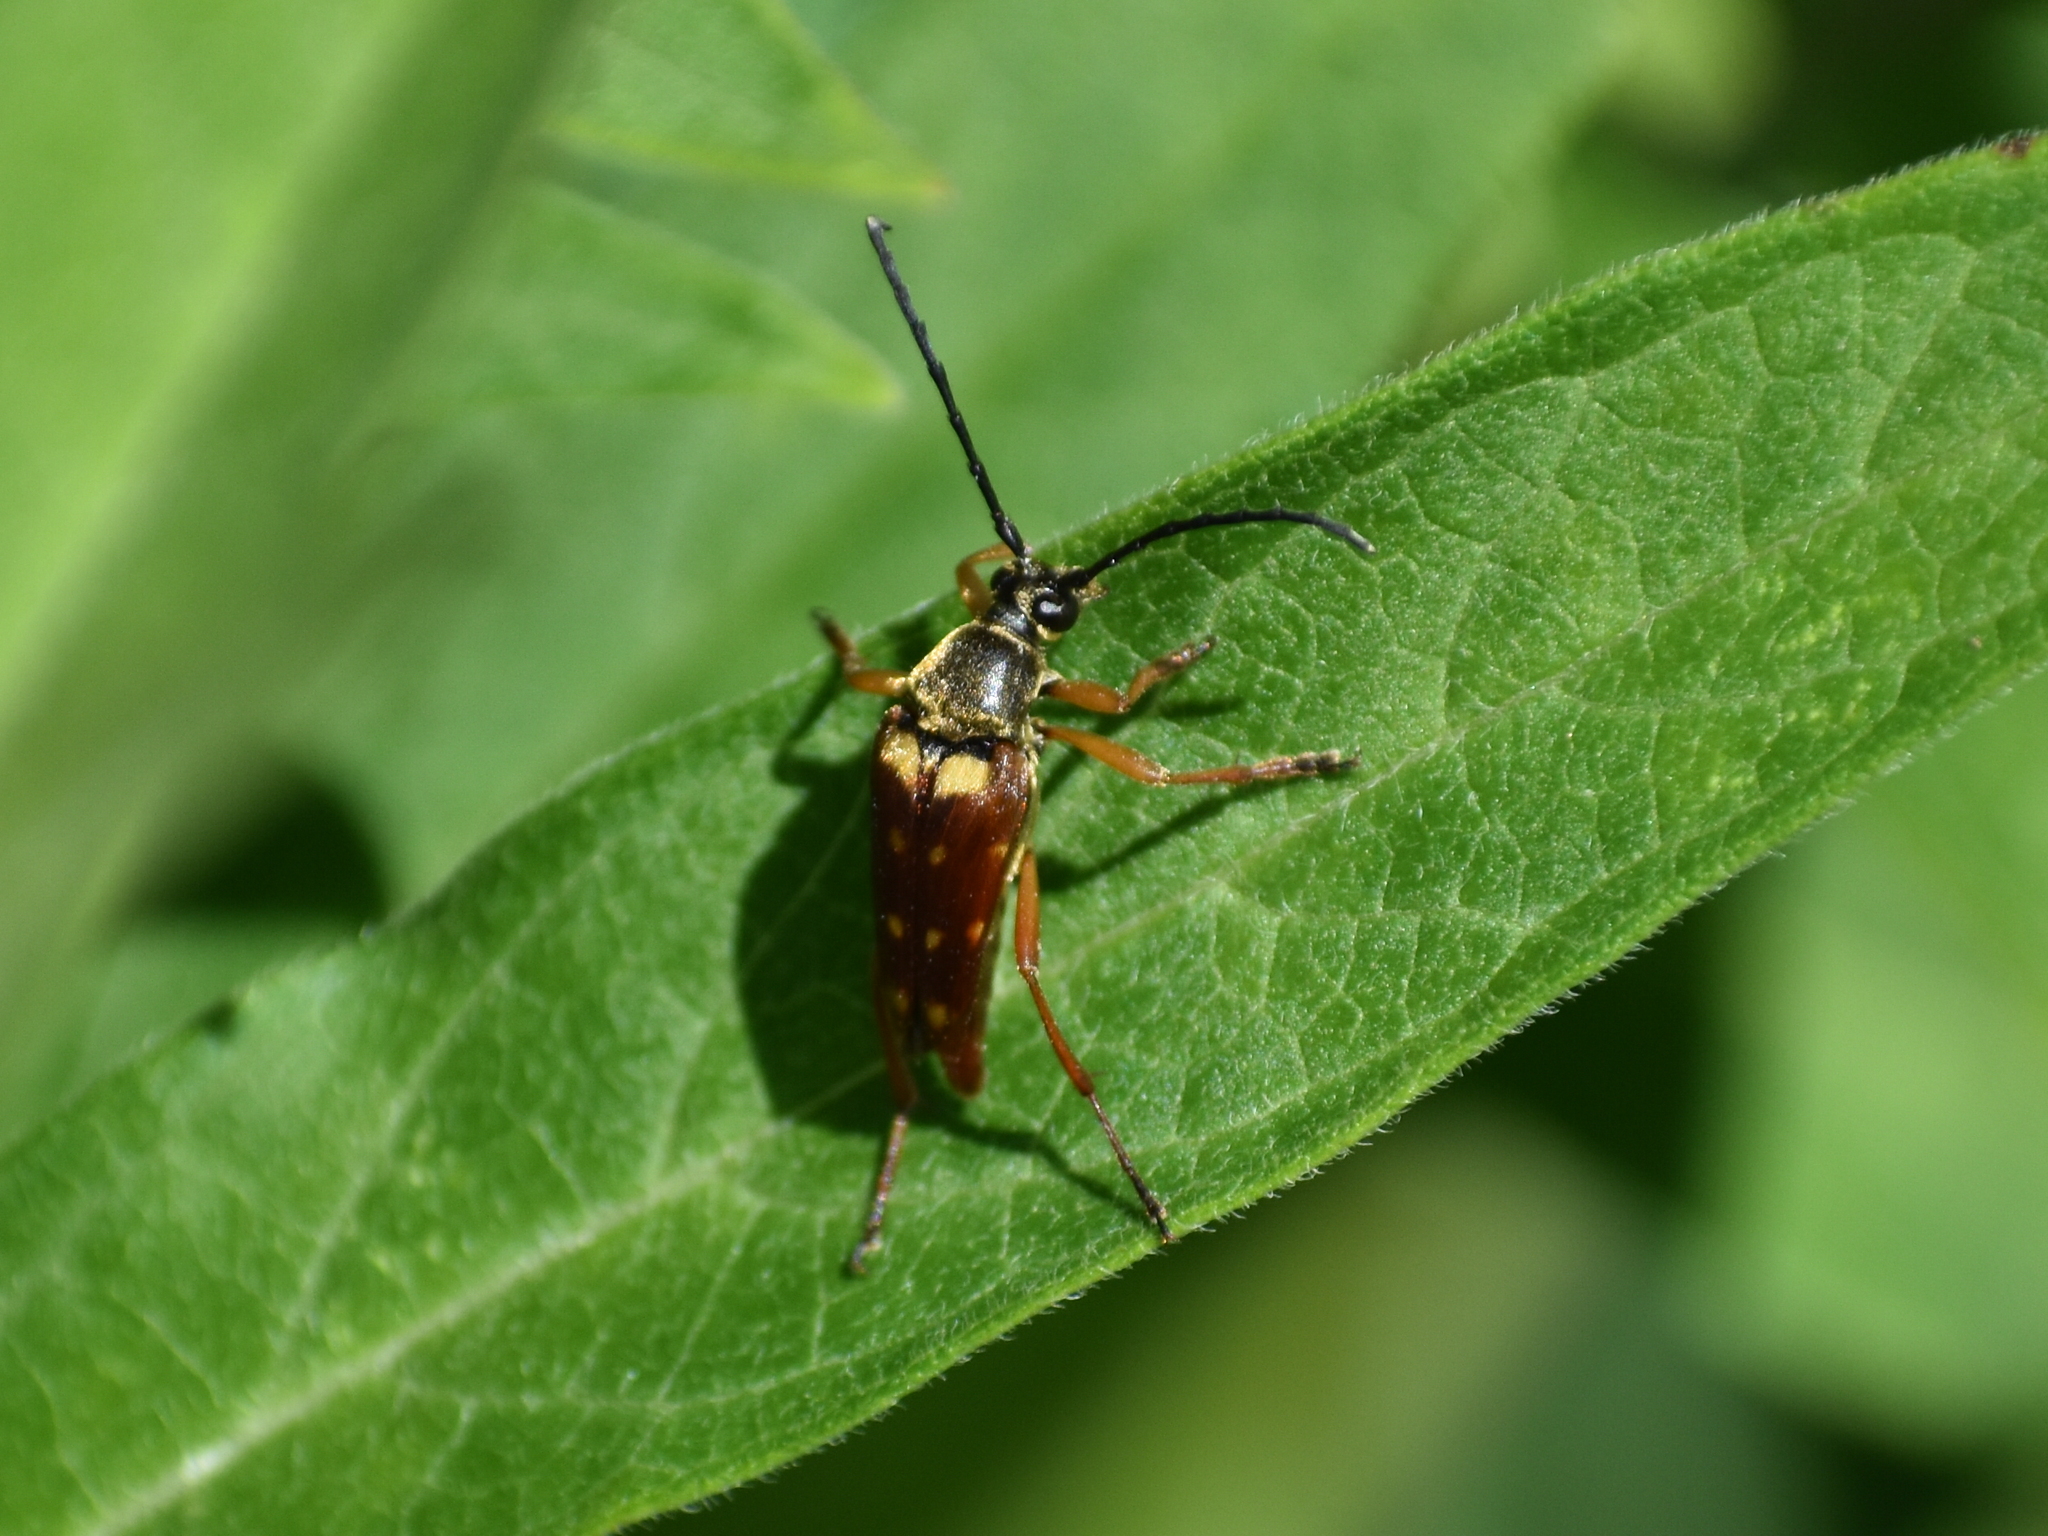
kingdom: Animalia
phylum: Arthropoda
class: Insecta
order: Coleoptera
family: Cerambycidae
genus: Typocerus
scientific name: Typocerus velutinus
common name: Banded longhorn beetle
